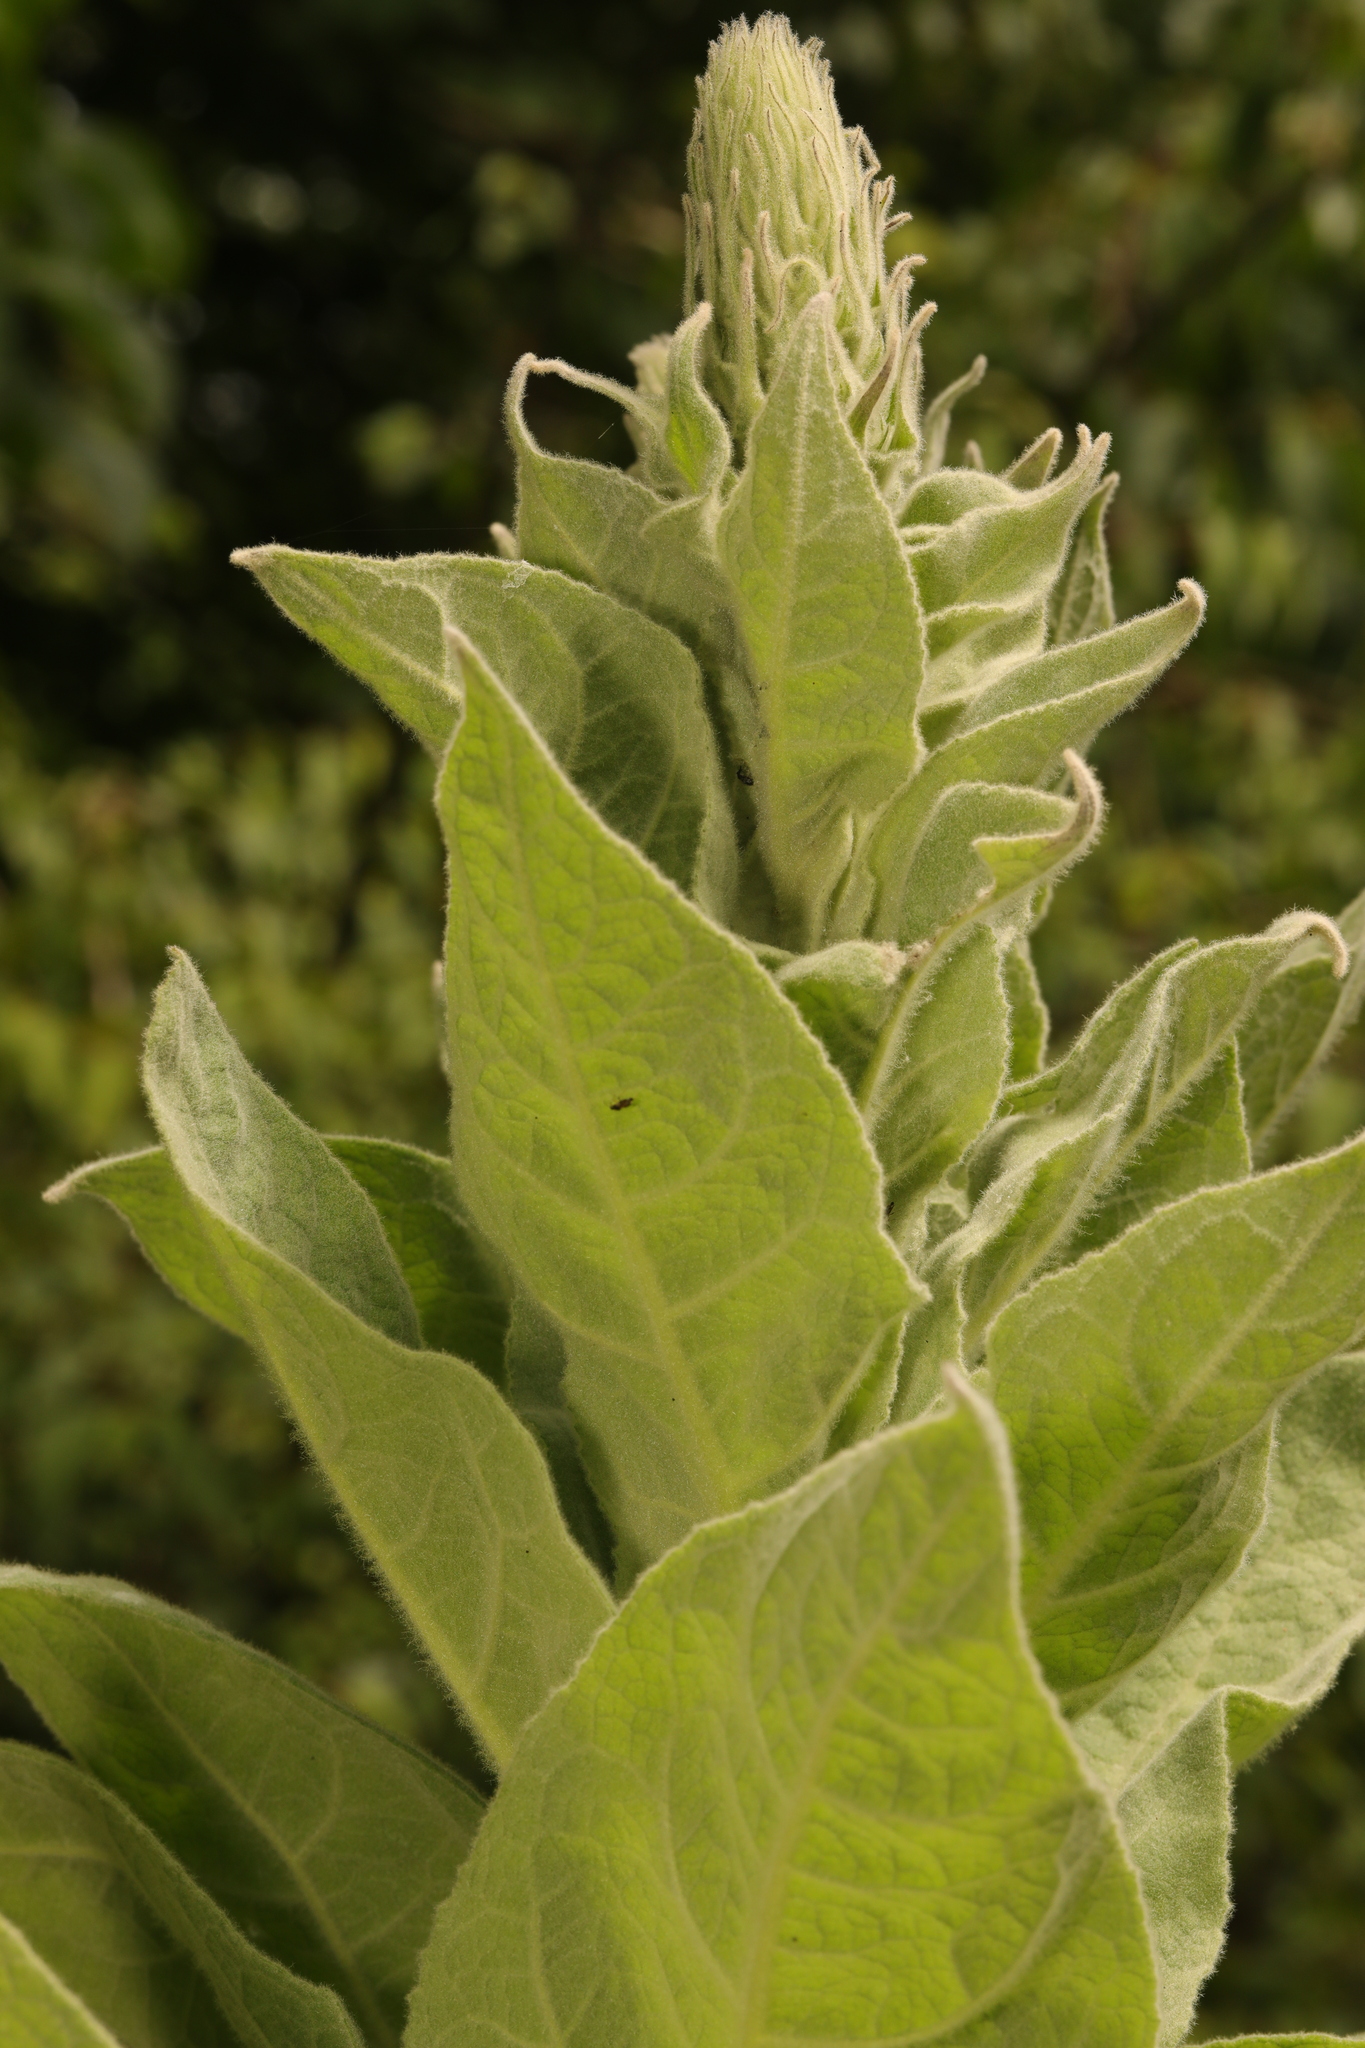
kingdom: Plantae
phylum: Tracheophyta
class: Magnoliopsida
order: Lamiales
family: Scrophulariaceae
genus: Verbascum
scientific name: Verbascum thapsus
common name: Common mullein
